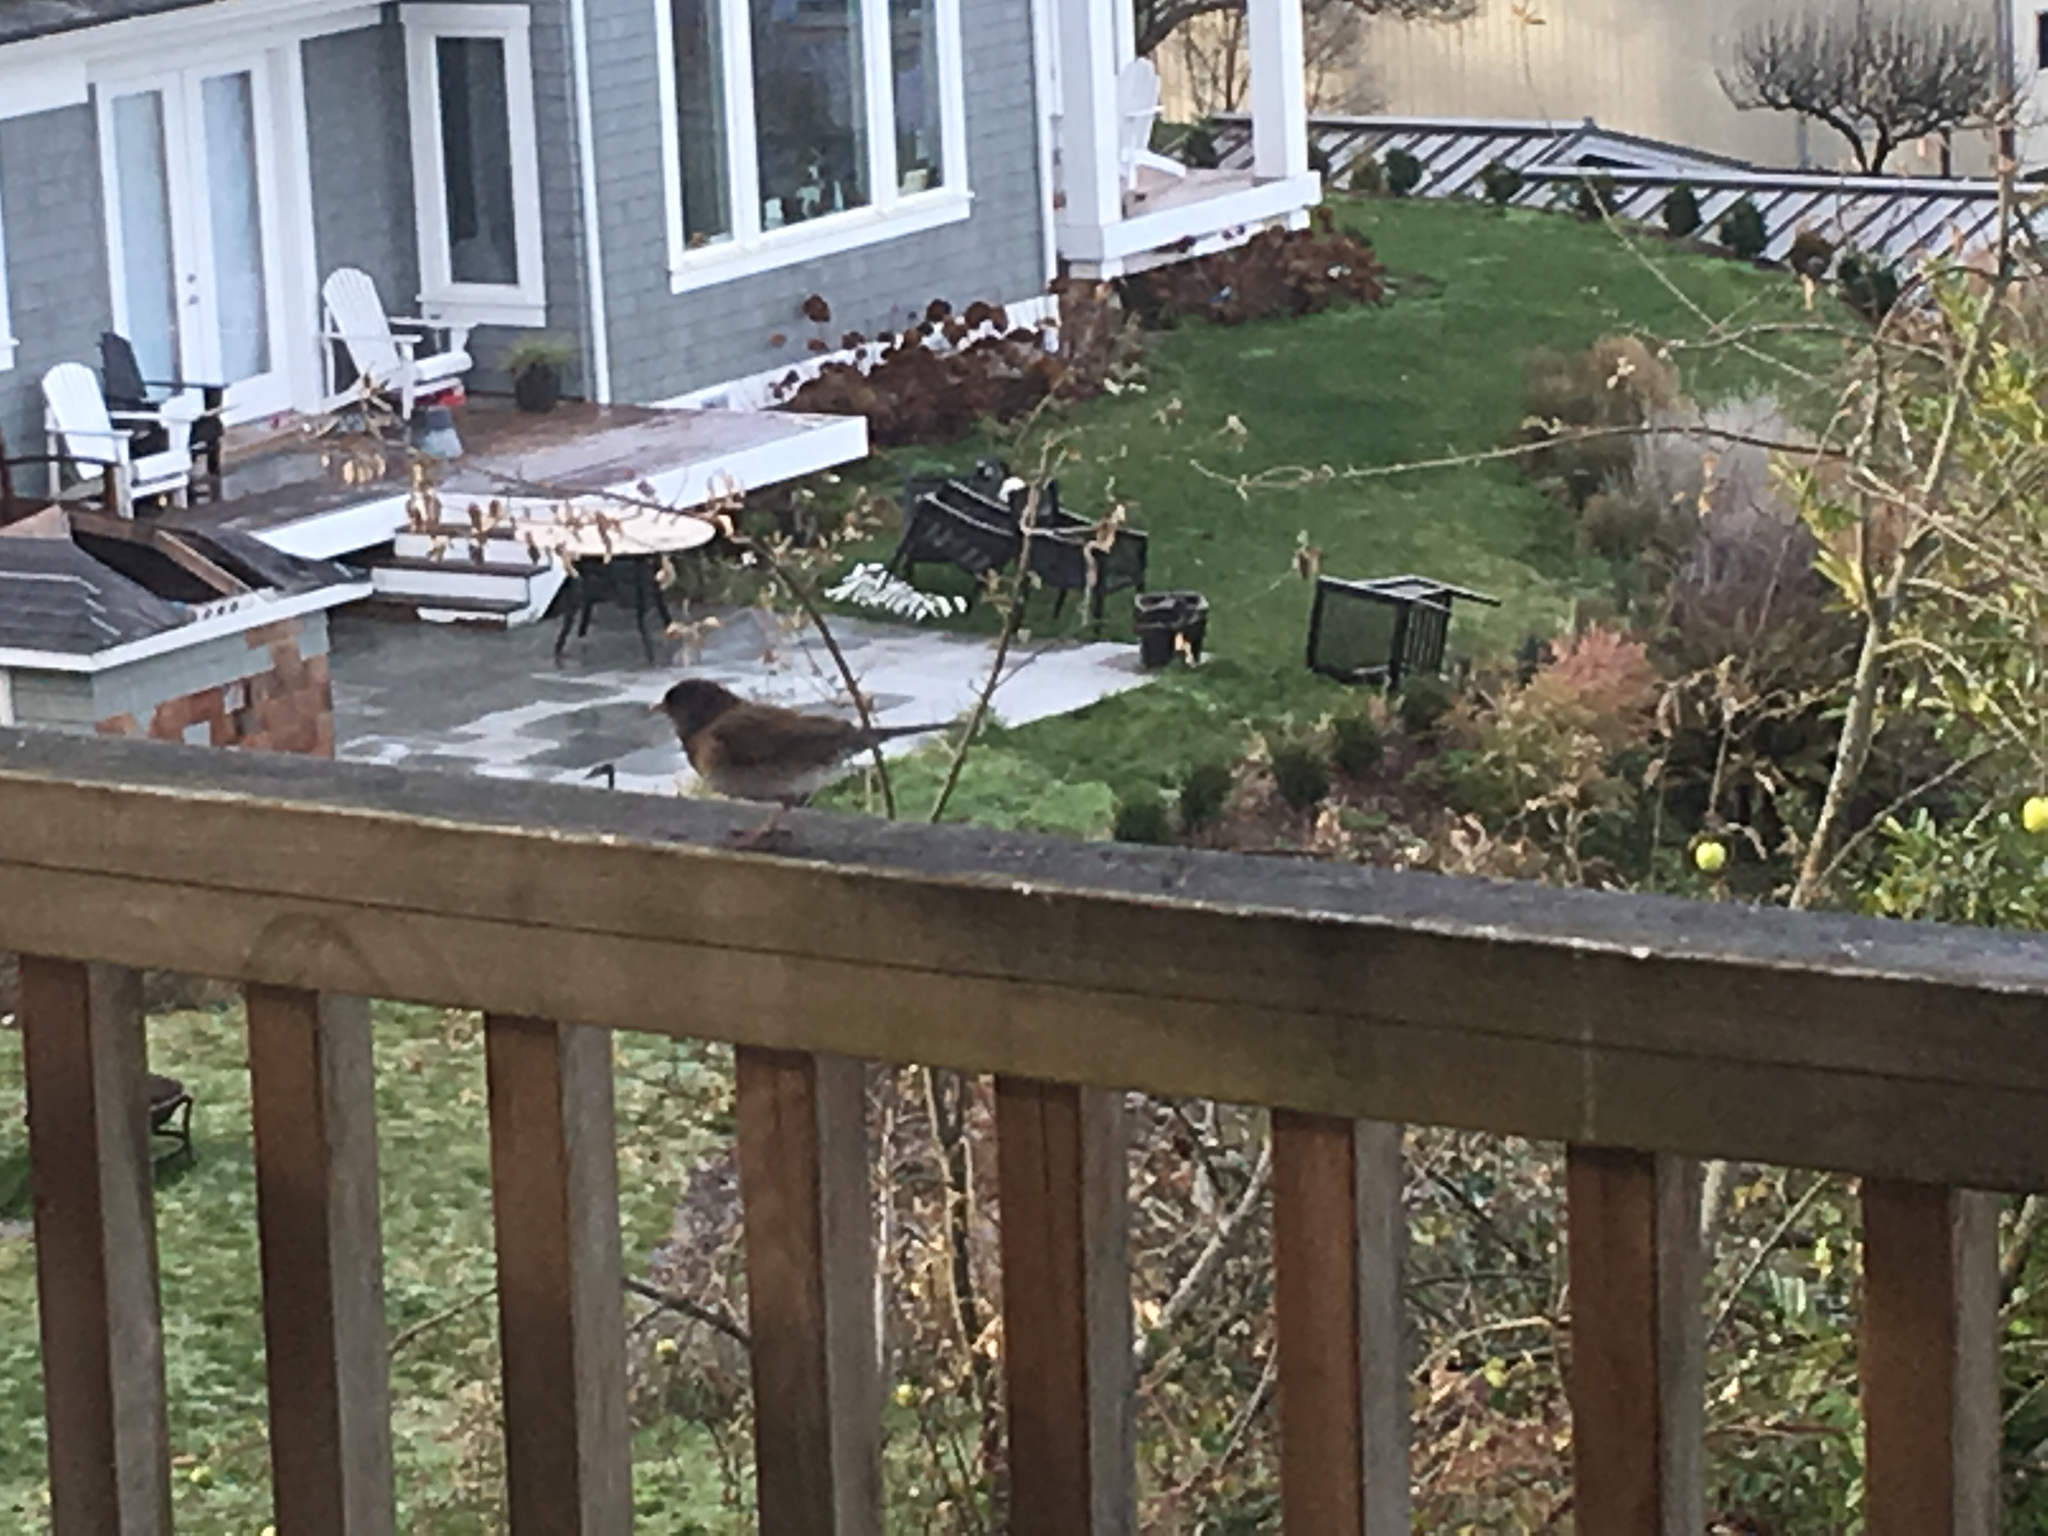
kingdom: Animalia
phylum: Chordata
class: Aves
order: Passeriformes
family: Passerellidae
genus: Junco
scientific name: Junco hyemalis
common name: Dark-eyed junco
